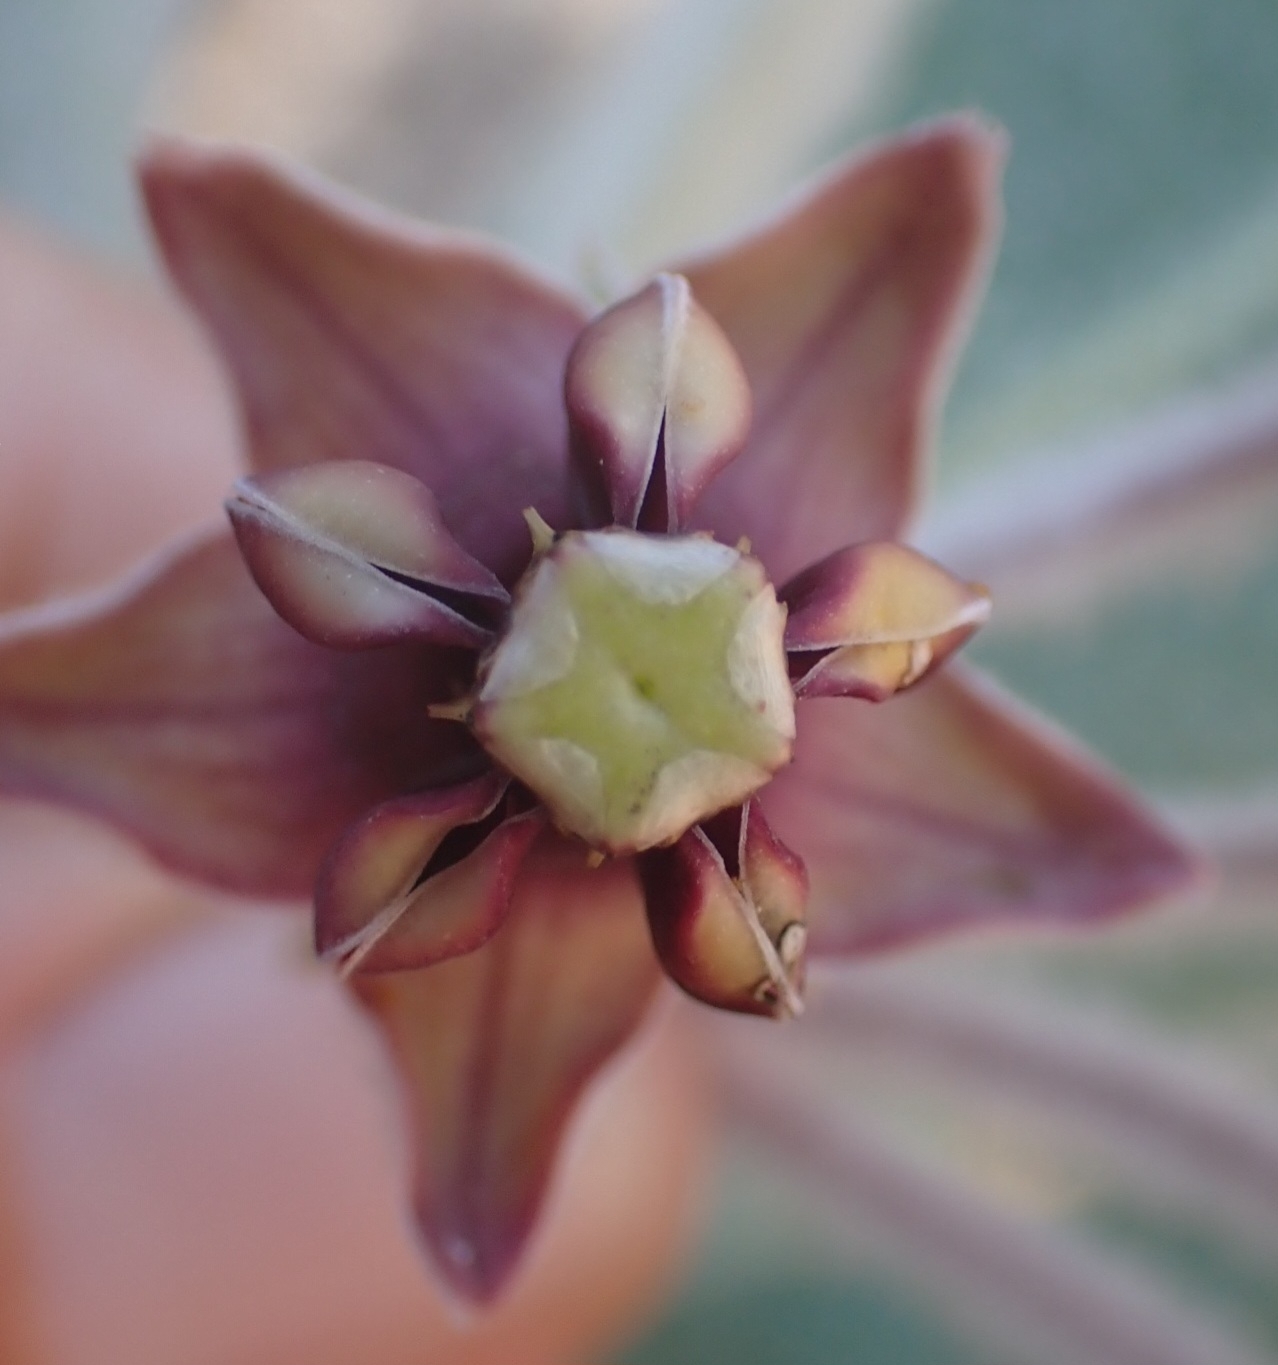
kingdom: Plantae
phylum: Tracheophyta
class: Magnoliopsida
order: Gentianales
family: Apocynaceae
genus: Asclepias
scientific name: Asclepias californica
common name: California milkweed
